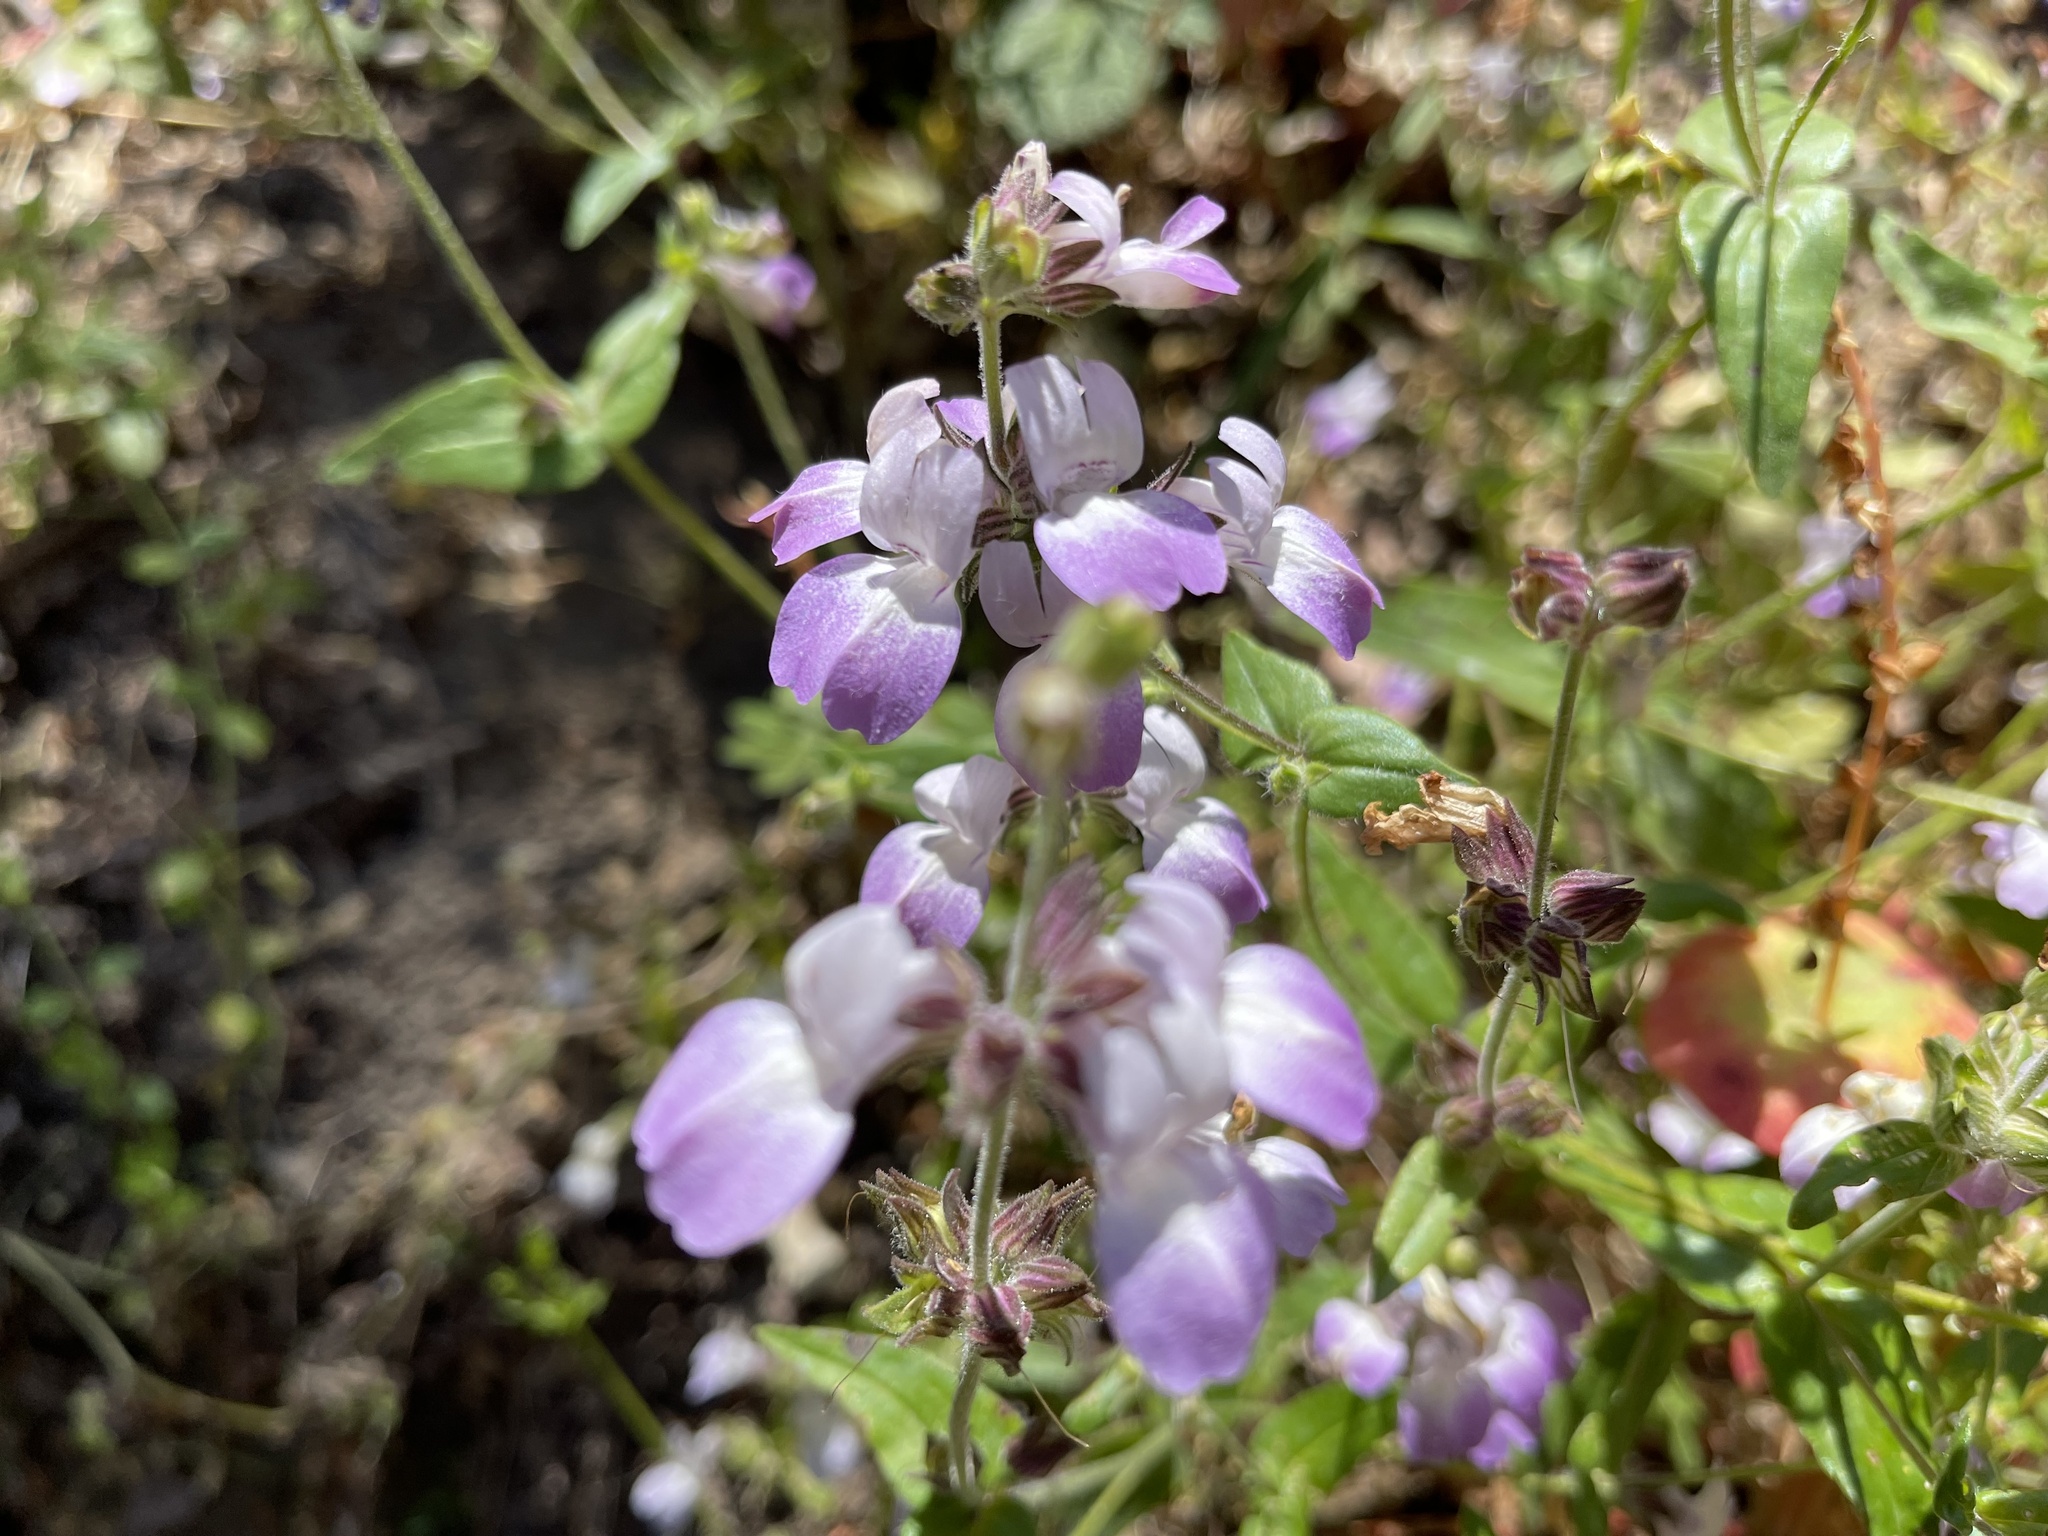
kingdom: Plantae
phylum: Tracheophyta
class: Magnoliopsida
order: Lamiales
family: Plantaginaceae
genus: Collinsia
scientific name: Collinsia heterophylla
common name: Chinese-houses
